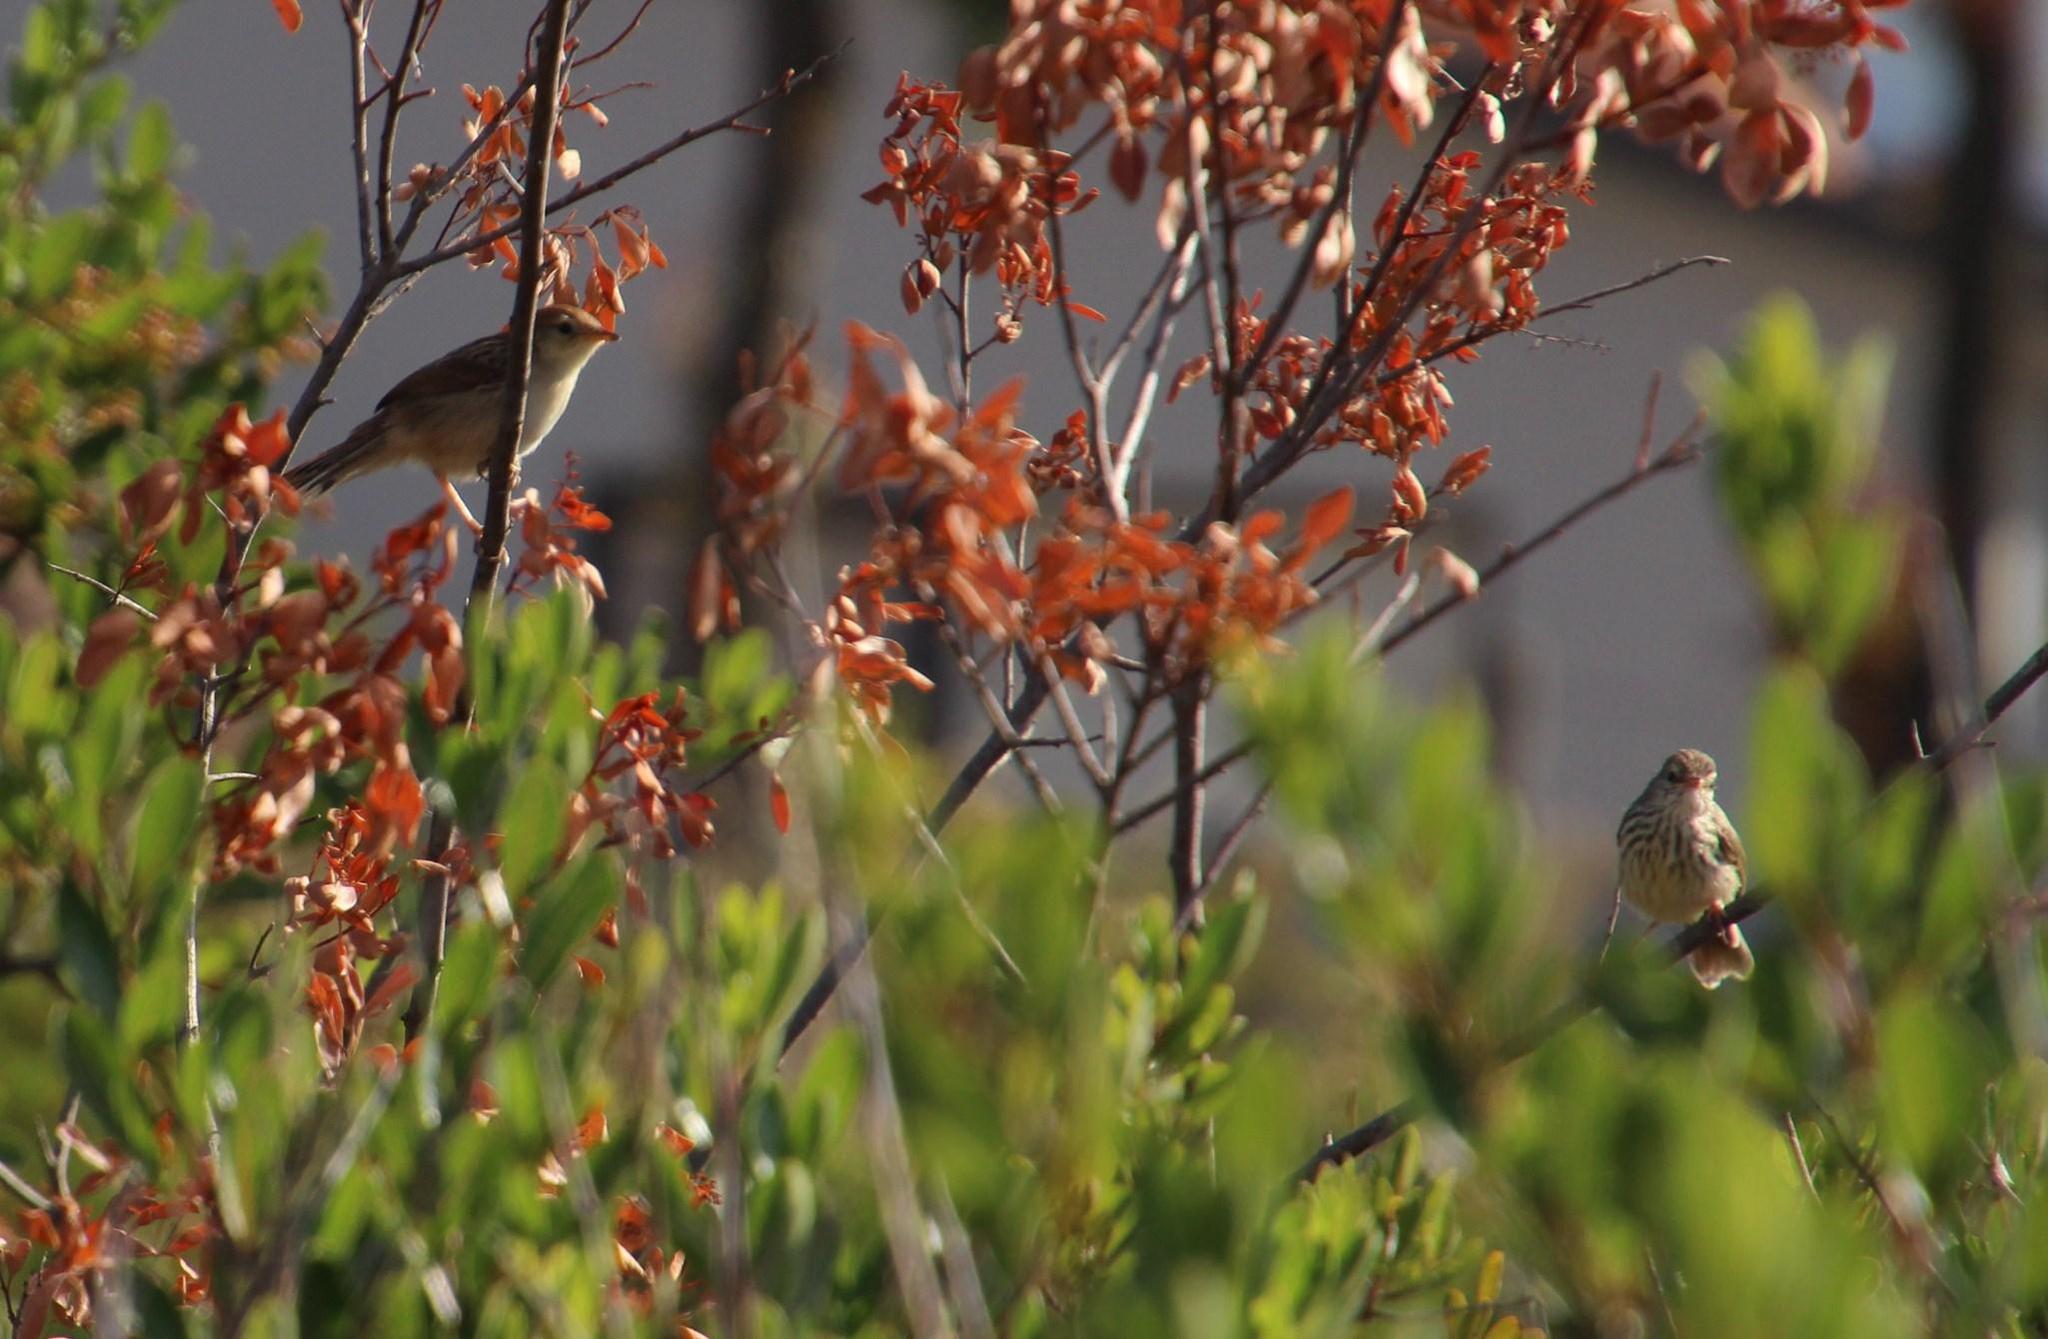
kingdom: Animalia
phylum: Chordata
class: Aves
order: Passeriformes
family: Cisticolidae
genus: Cisticola
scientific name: Cisticola tinniens
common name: Levaillant's cisticola
